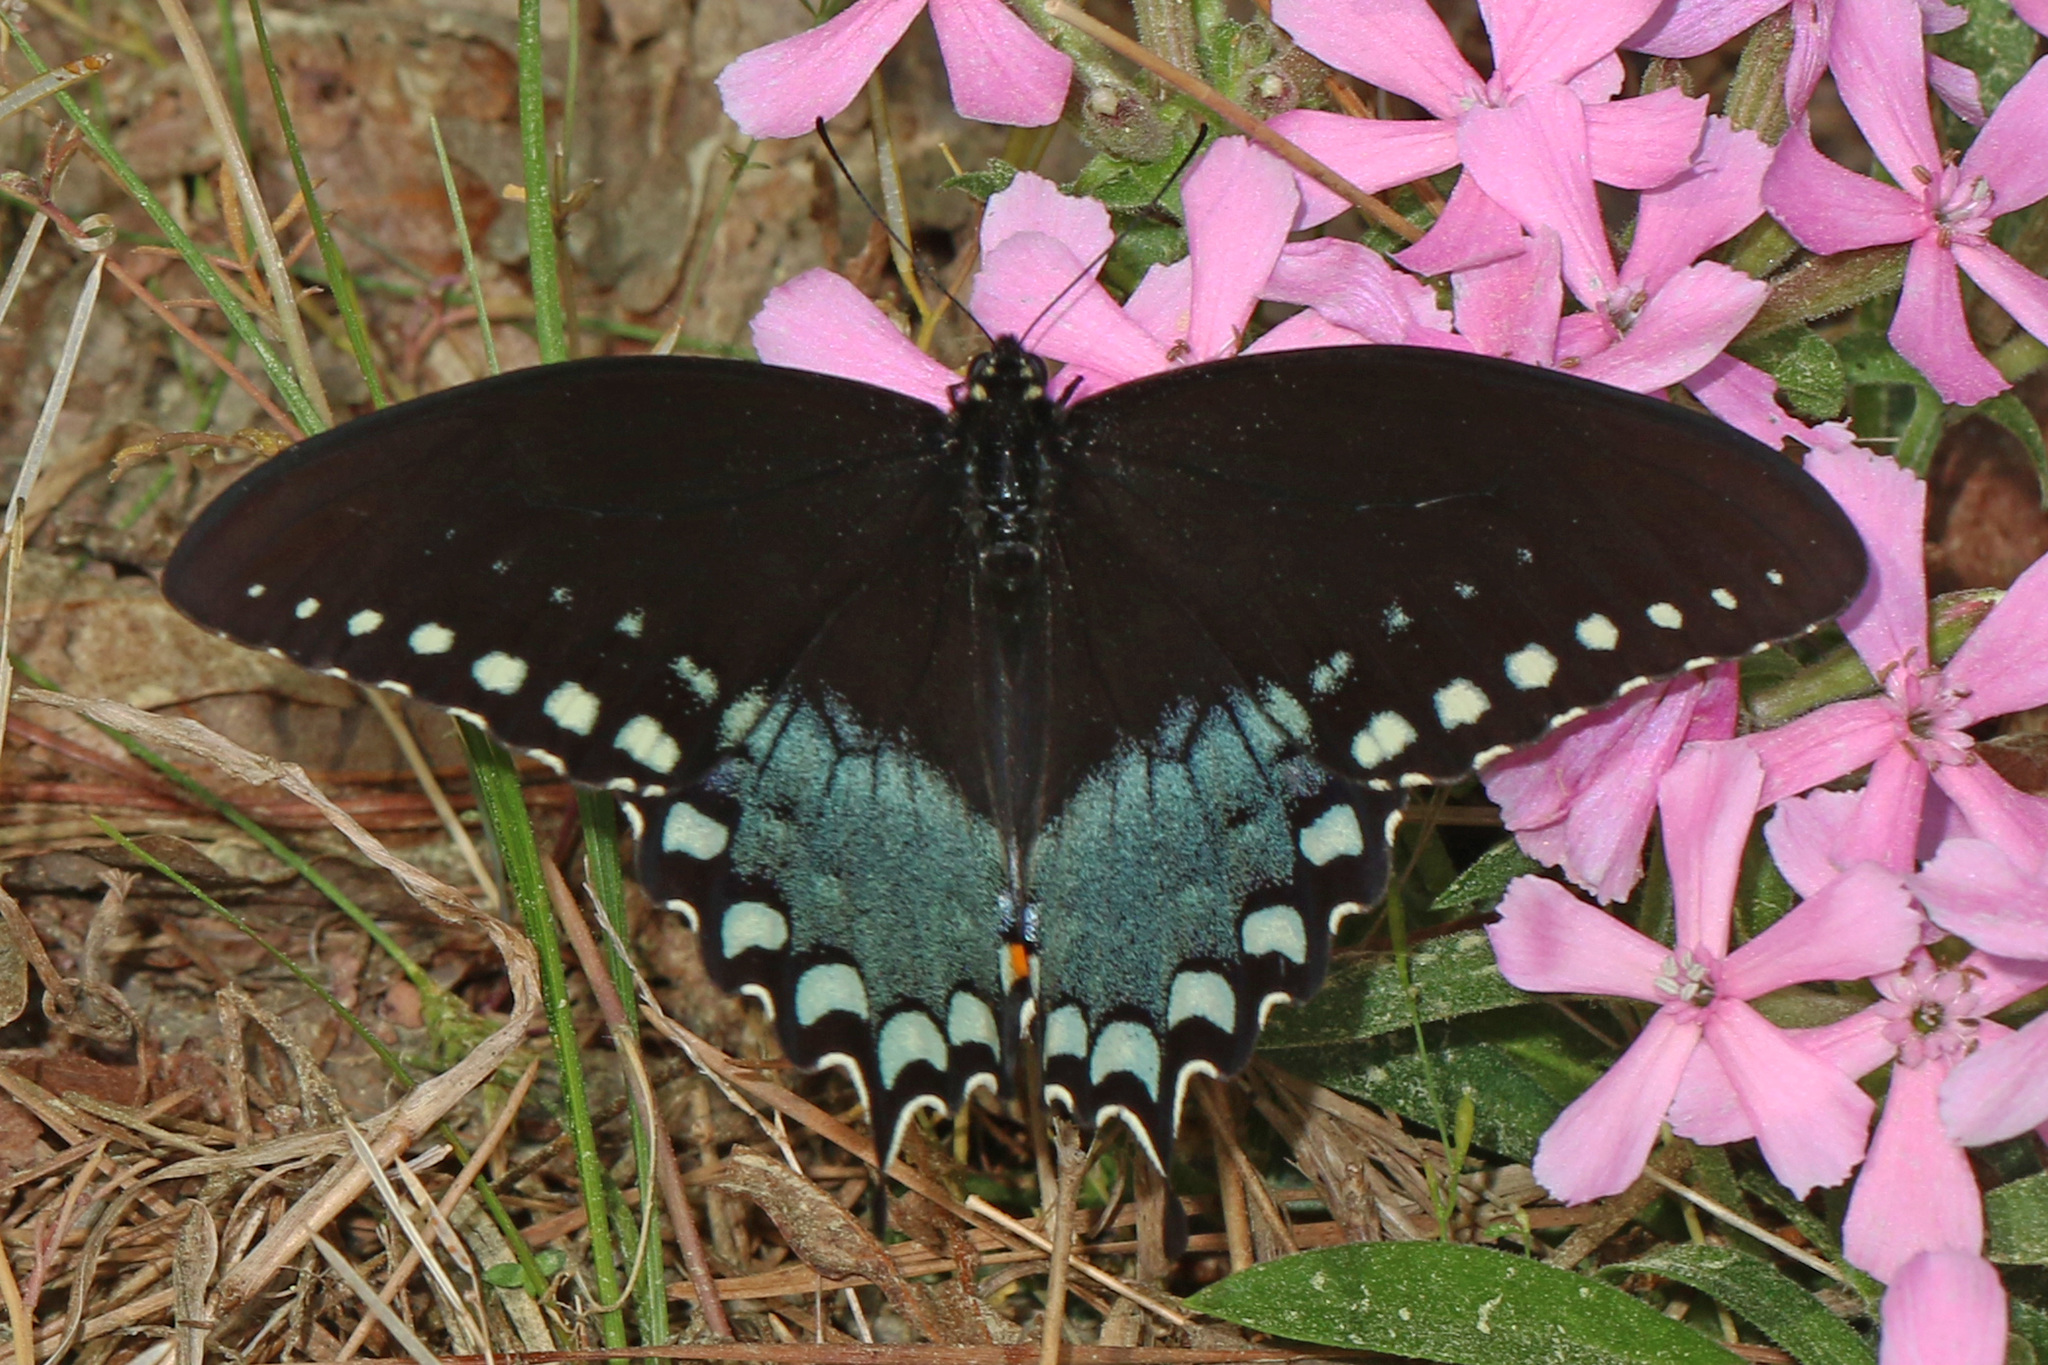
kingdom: Animalia
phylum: Arthropoda
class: Insecta
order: Lepidoptera
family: Papilionidae
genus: Papilio
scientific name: Papilio troilus
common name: Spicebush swallowtail
